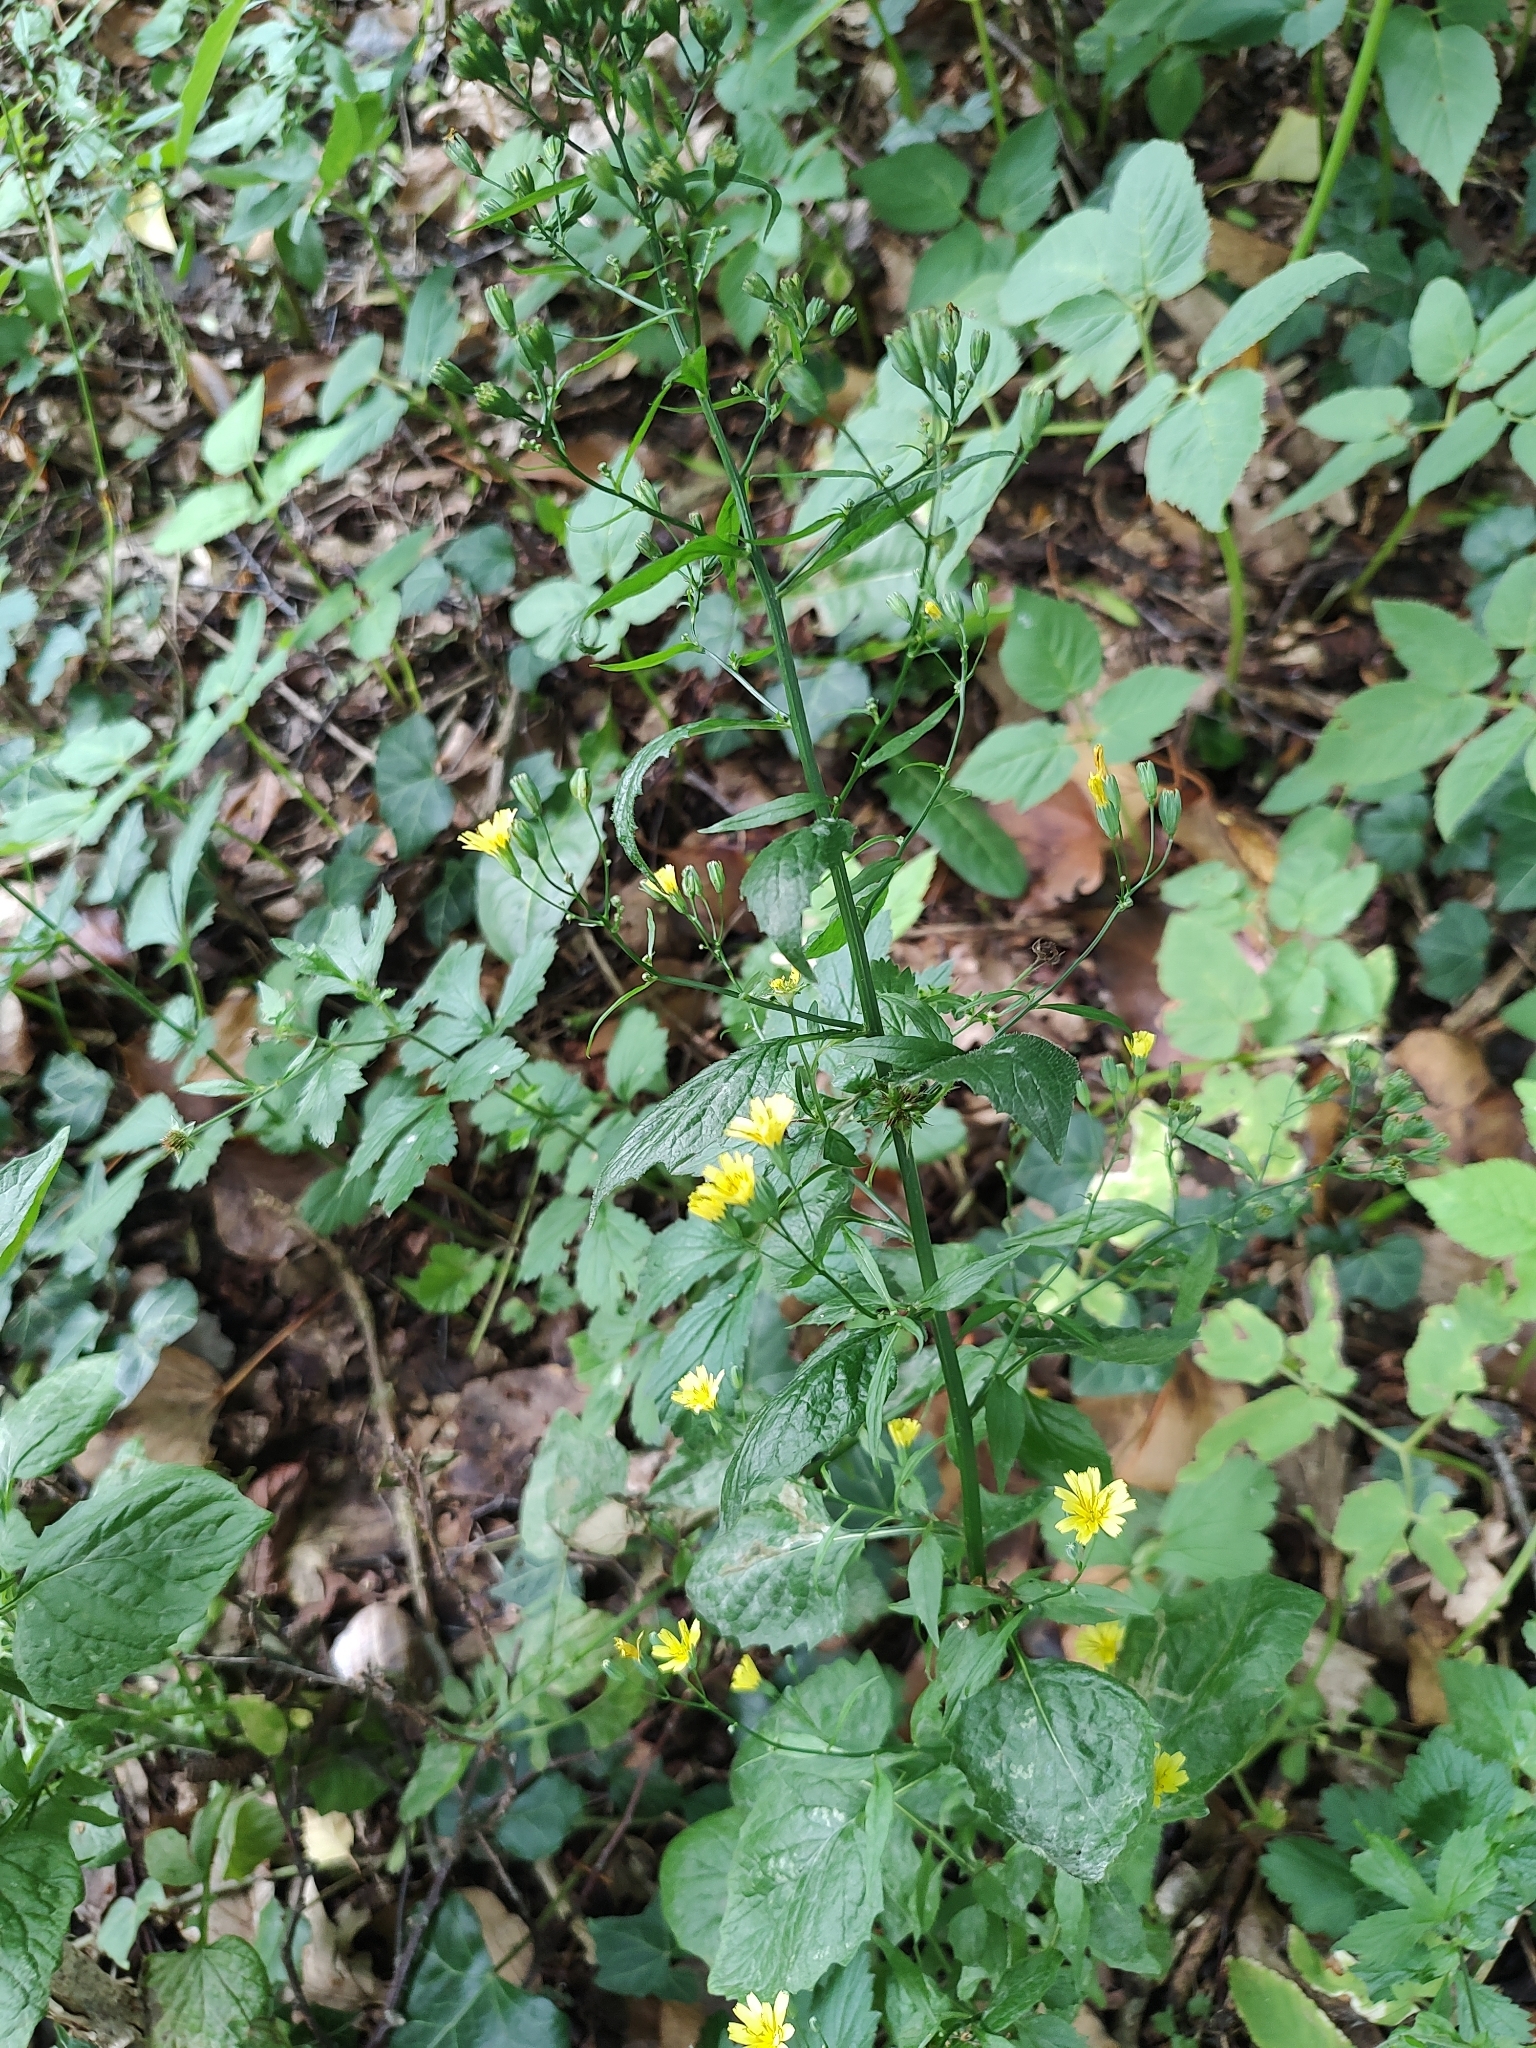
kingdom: Plantae
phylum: Tracheophyta
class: Magnoliopsida
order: Asterales
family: Asteraceae
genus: Lapsana
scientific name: Lapsana communis
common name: Nipplewort
